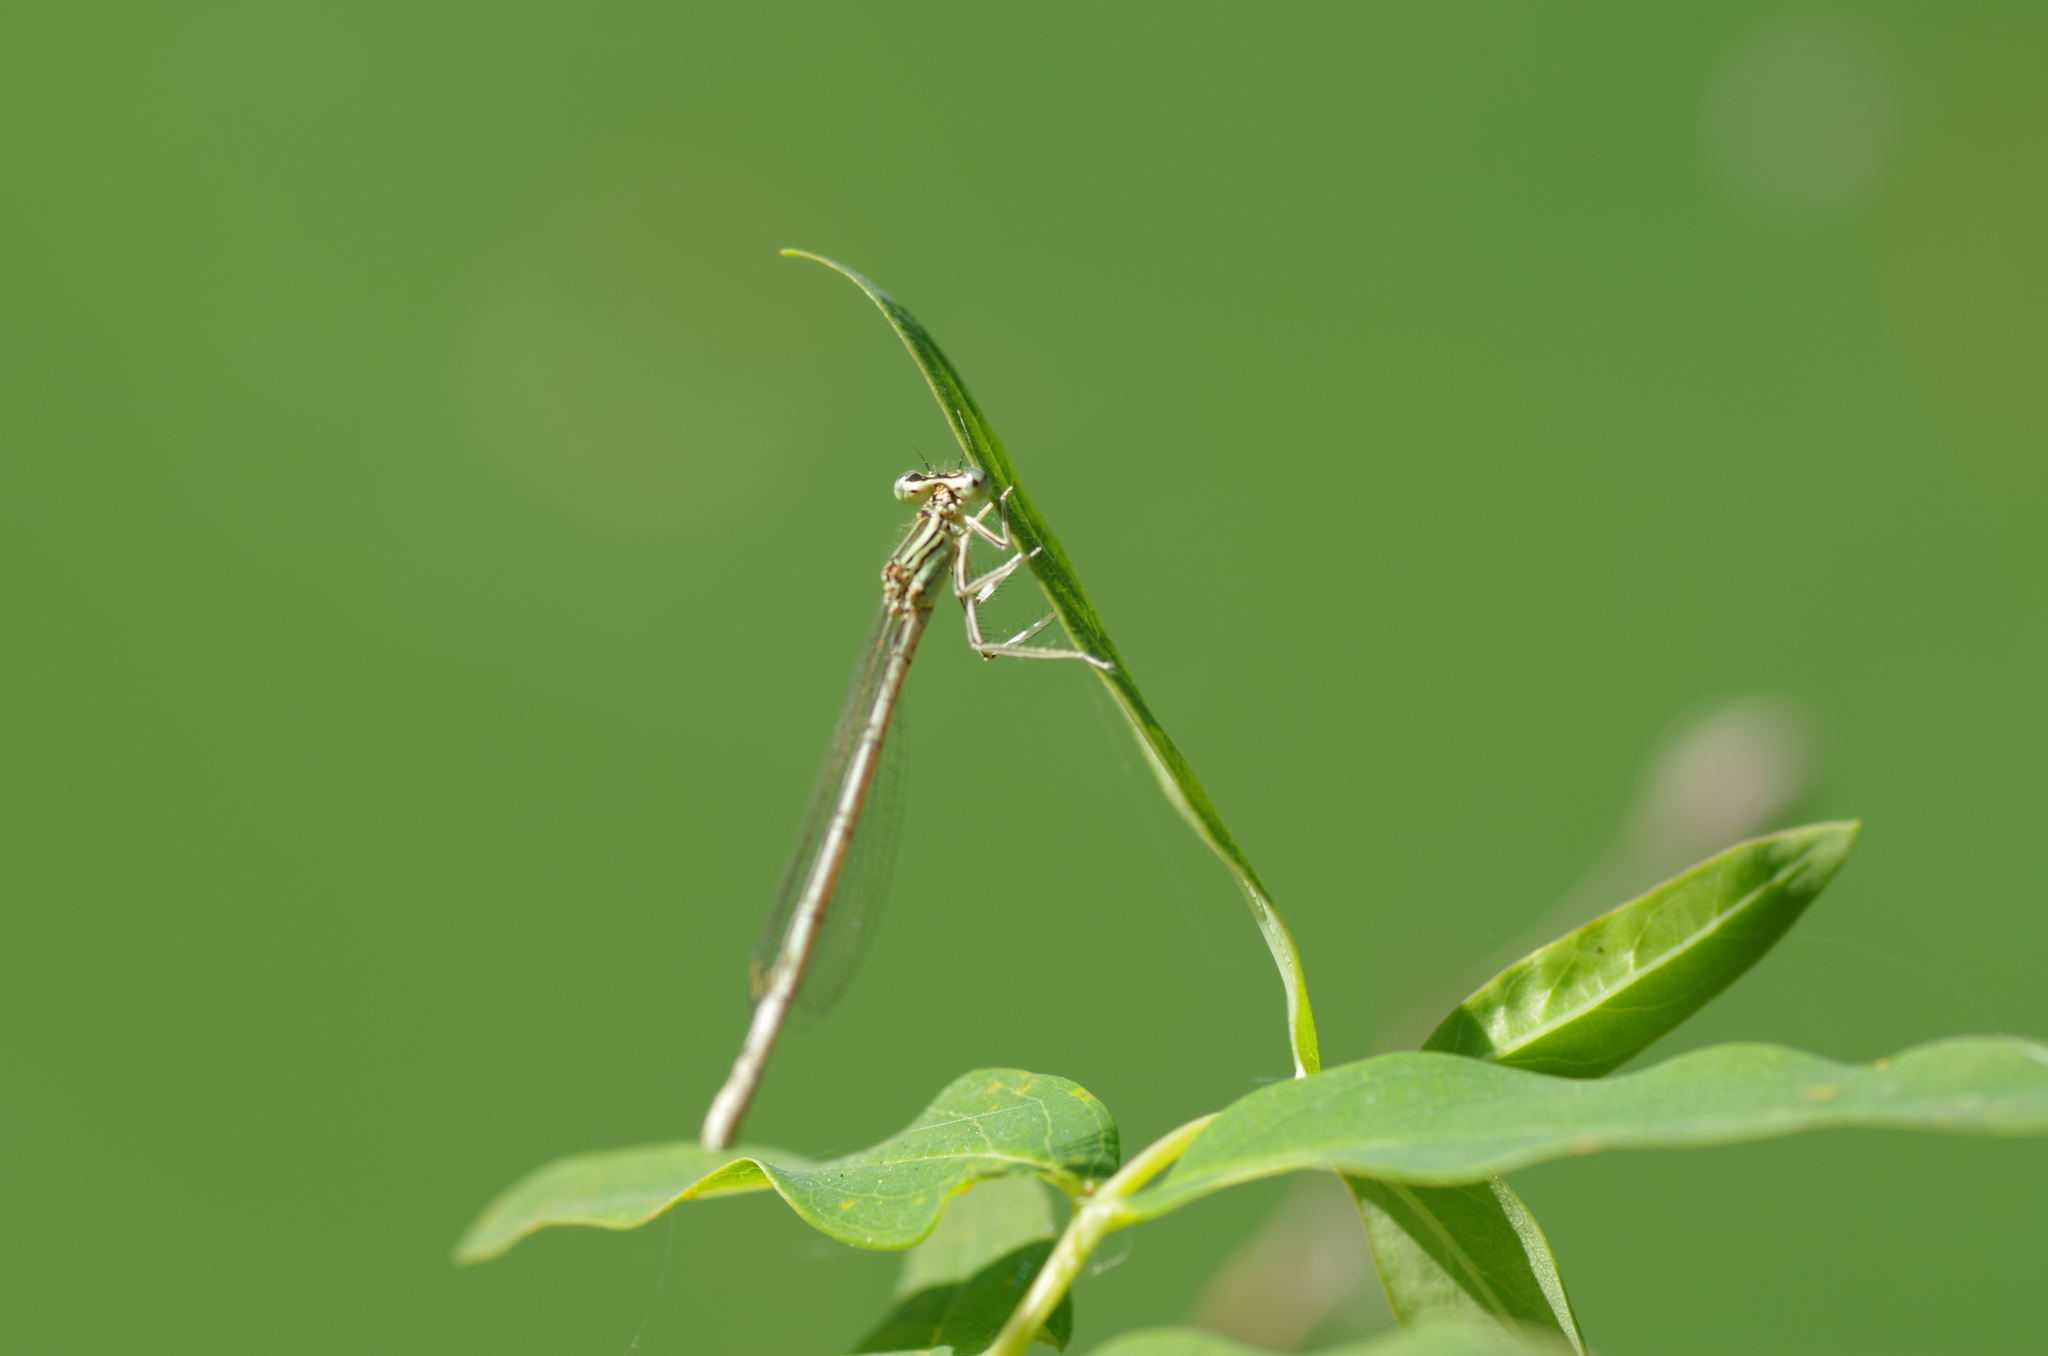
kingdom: Animalia
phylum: Arthropoda
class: Insecta
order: Odonata
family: Platycnemididae
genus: Platycnemis
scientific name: Platycnemis pennipes
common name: White-legged damselfly
